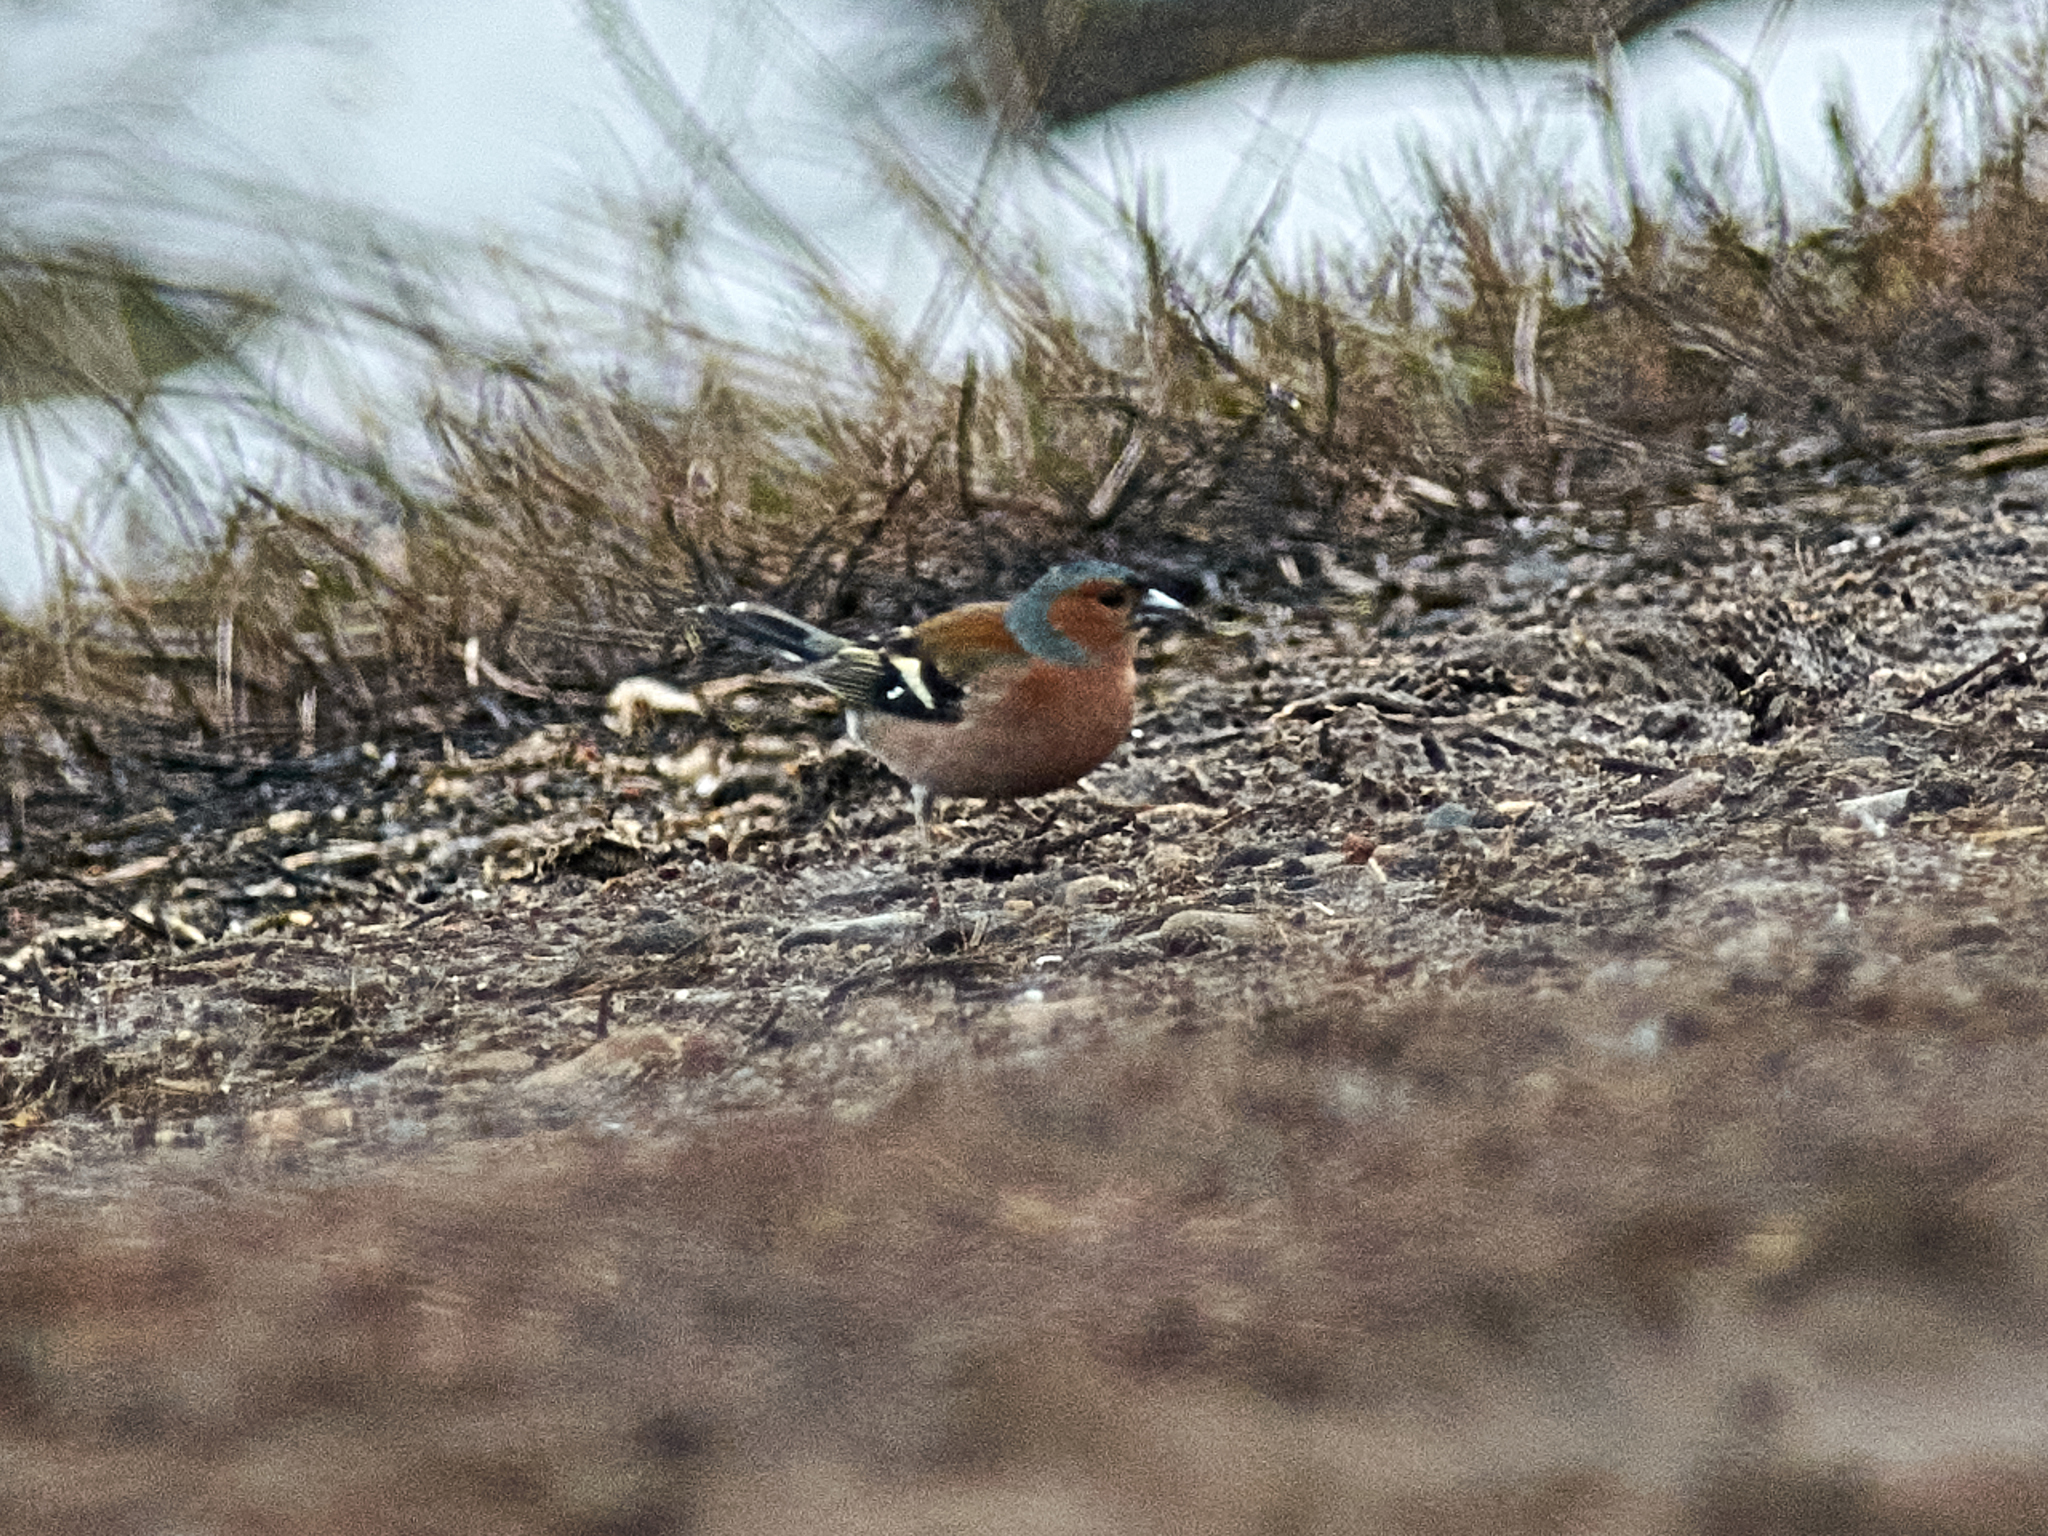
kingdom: Animalia
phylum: Chordata
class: Aves
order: Passeriformes
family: Fringillidae
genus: Fringilla
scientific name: Fringilla coelebs
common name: Common chaffinch
